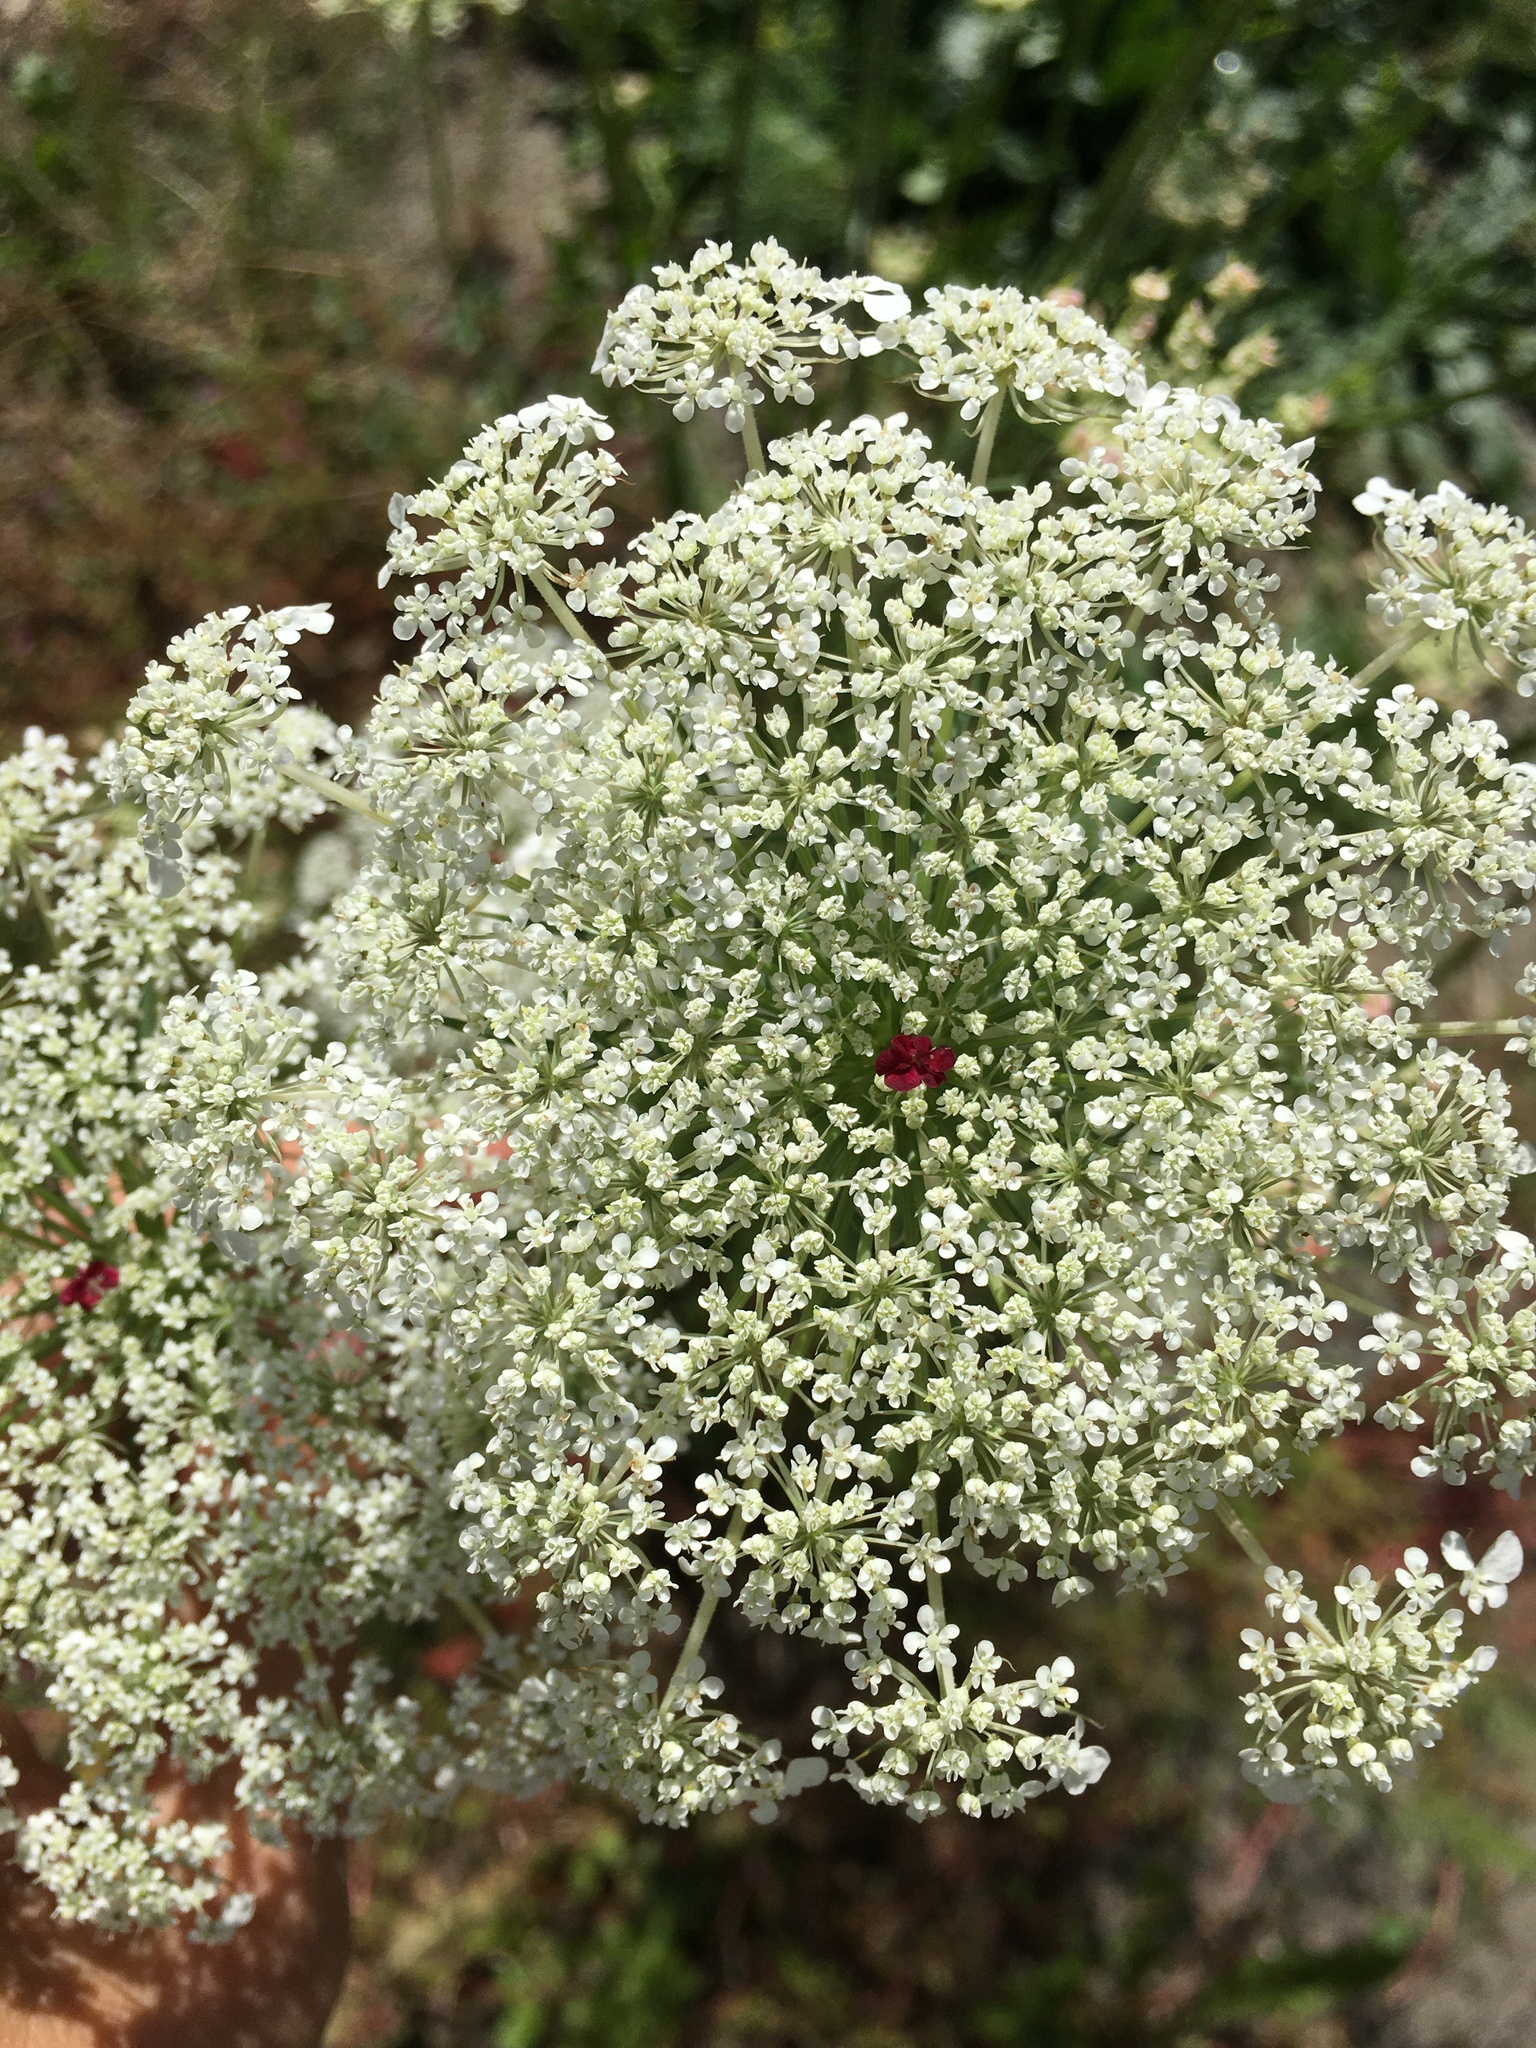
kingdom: Plantae
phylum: Tracheophyta
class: Magnoliopsida
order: Apiales
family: Apiaceae
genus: Daucus
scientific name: Daucus carota
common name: Wild carrot
